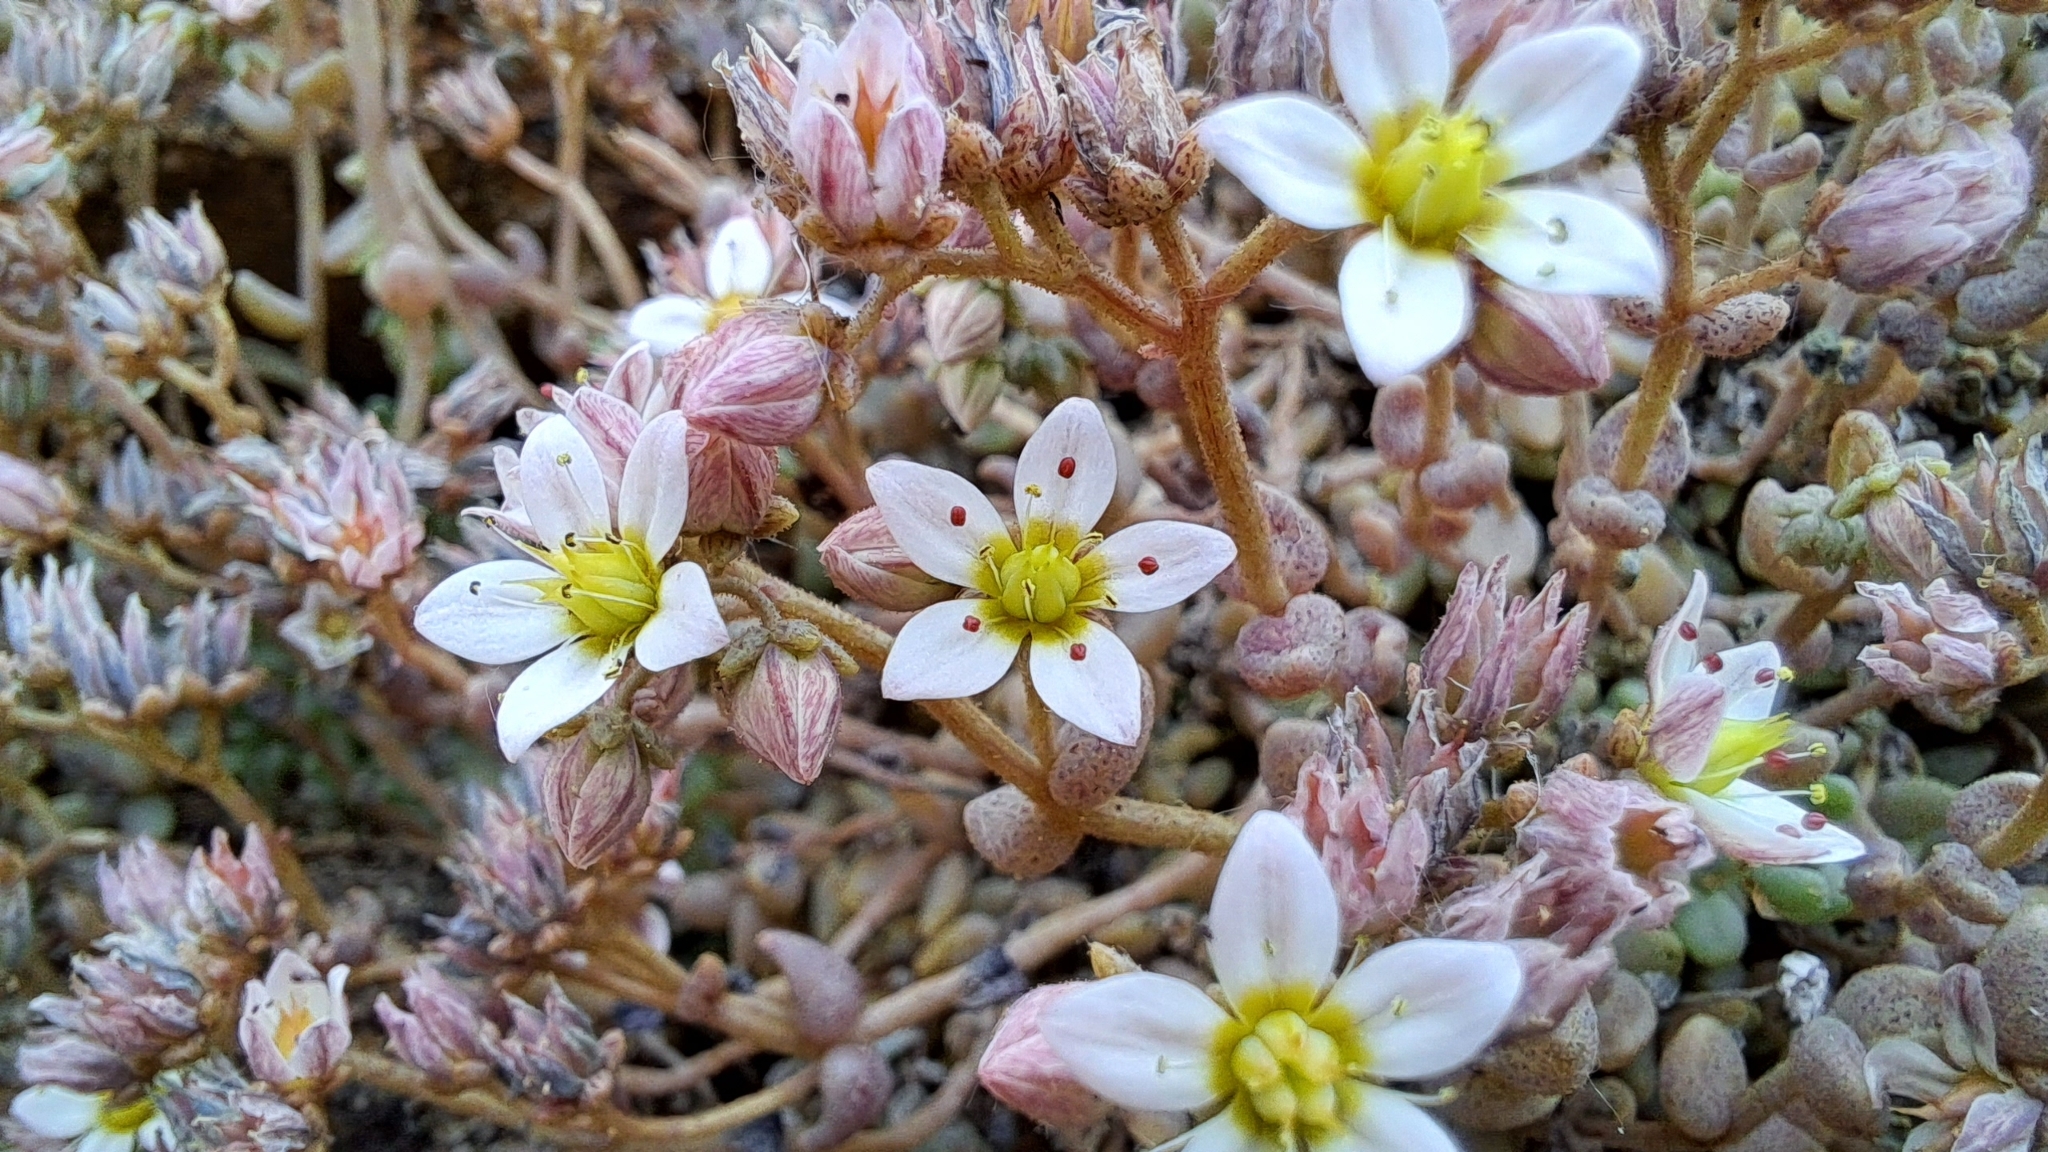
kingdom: Plantae
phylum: Tracheophyta
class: Magnoliopsida
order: Saxifragales
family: Crassulaceae
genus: Sedum
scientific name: Sedum dasyphyllum
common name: Thick-leaf stonecrop
